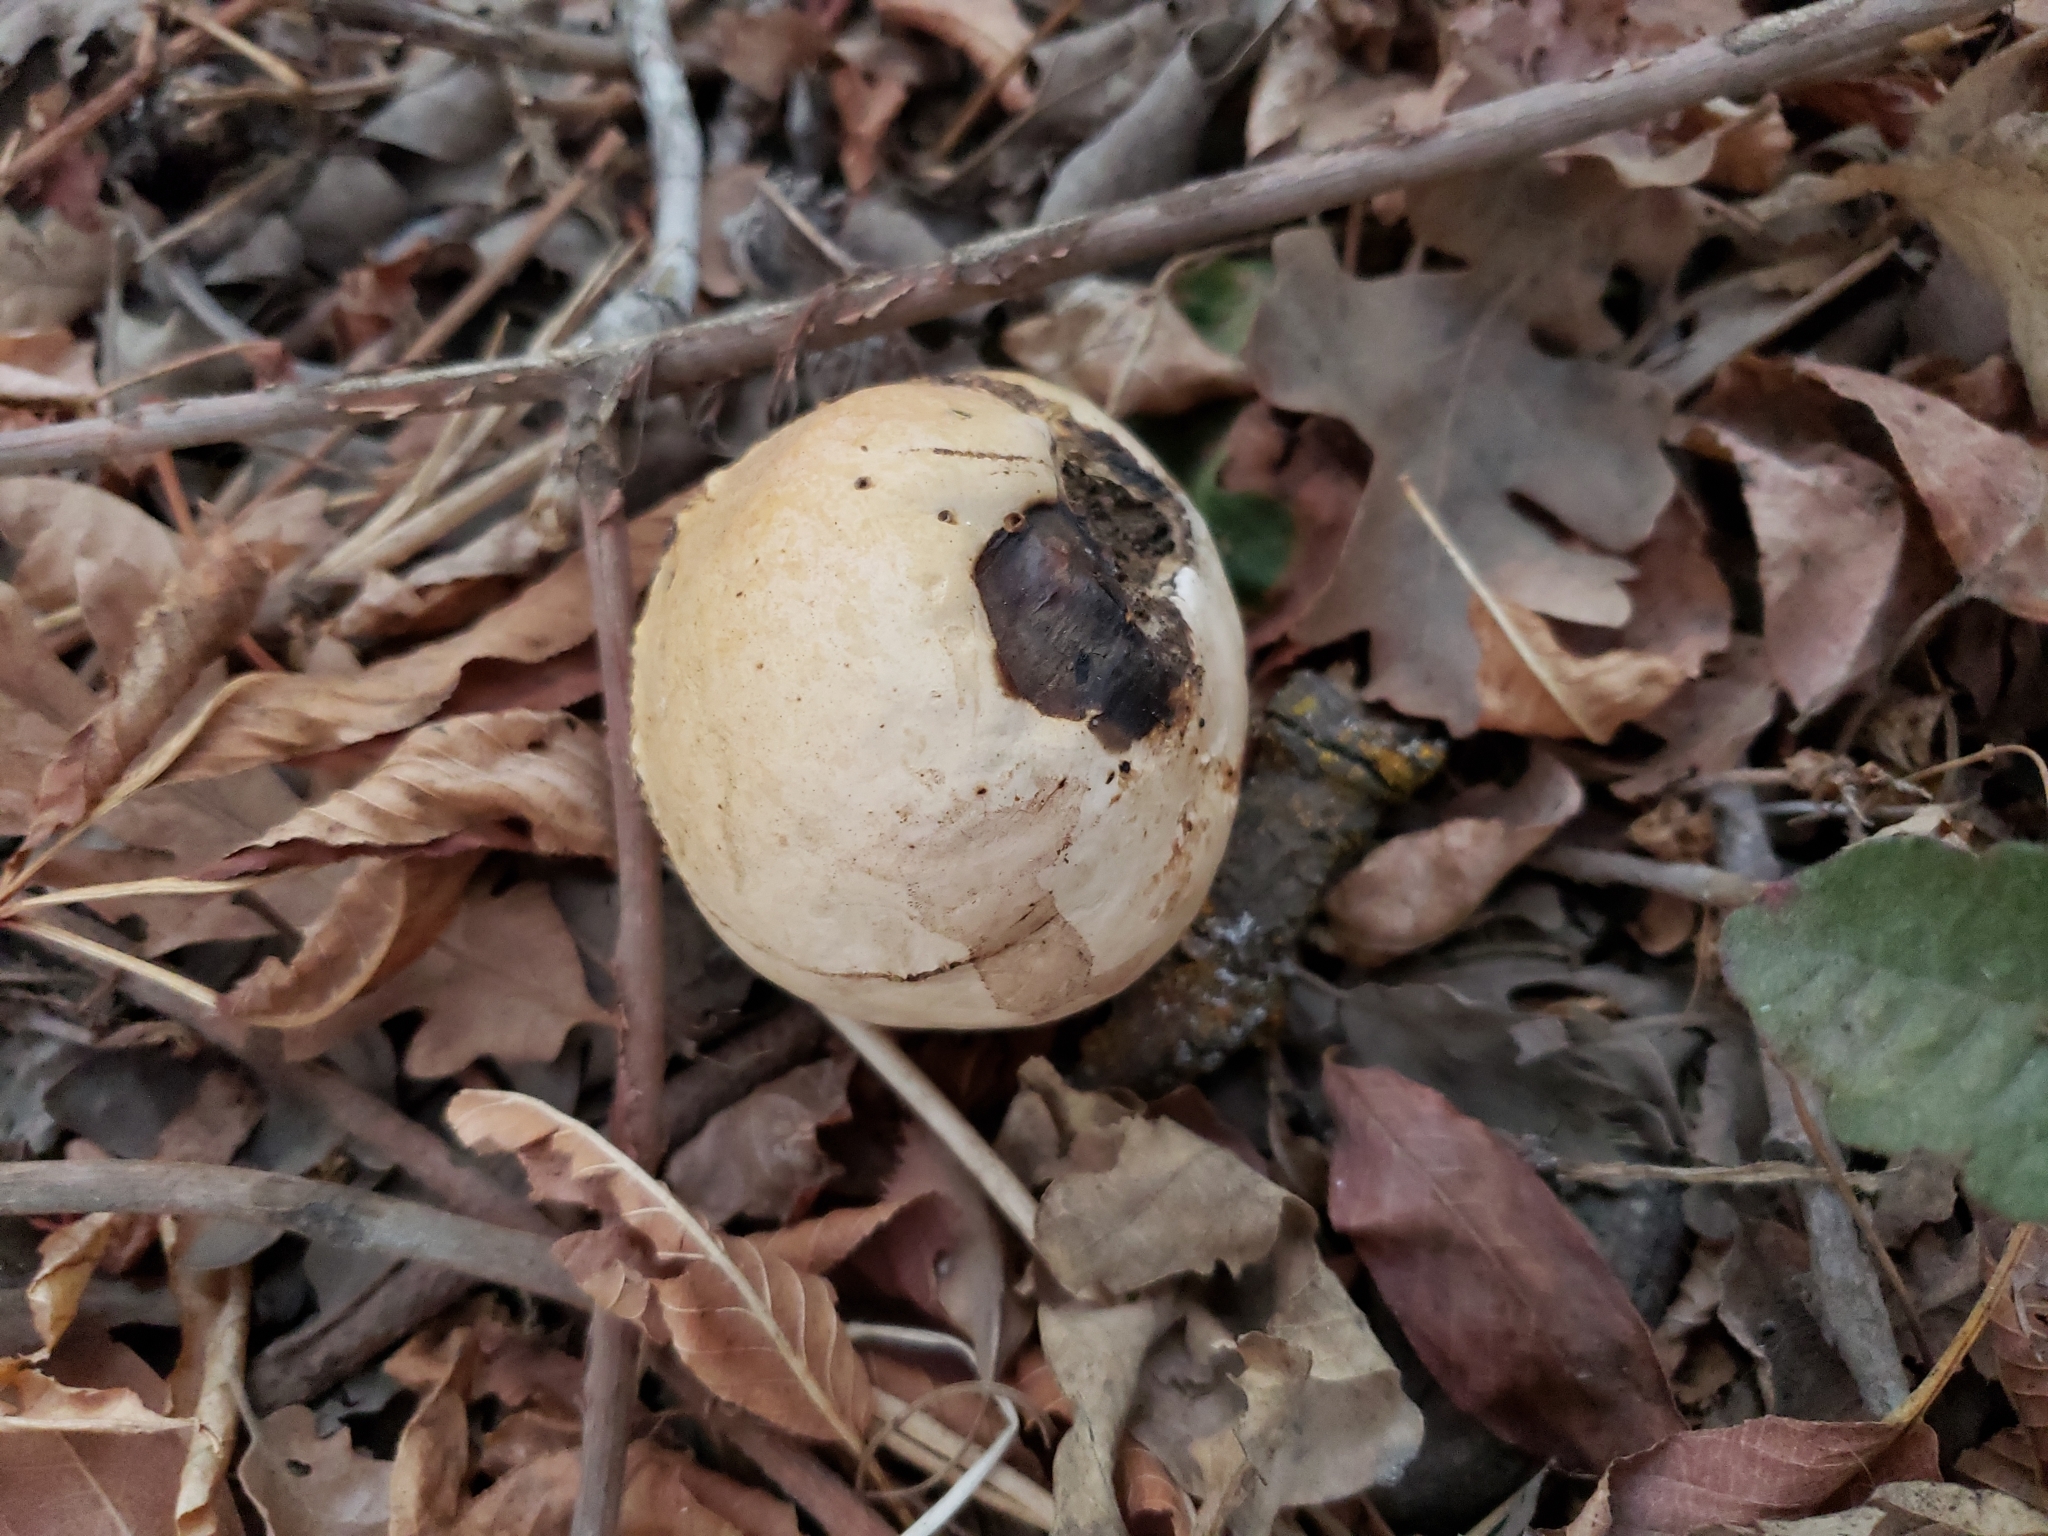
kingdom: Animalia
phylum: Arthropoda
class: Insecta
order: Hymenoptera
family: Cynipidae
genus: Andricus
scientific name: Andricus quercuscalifornicus
